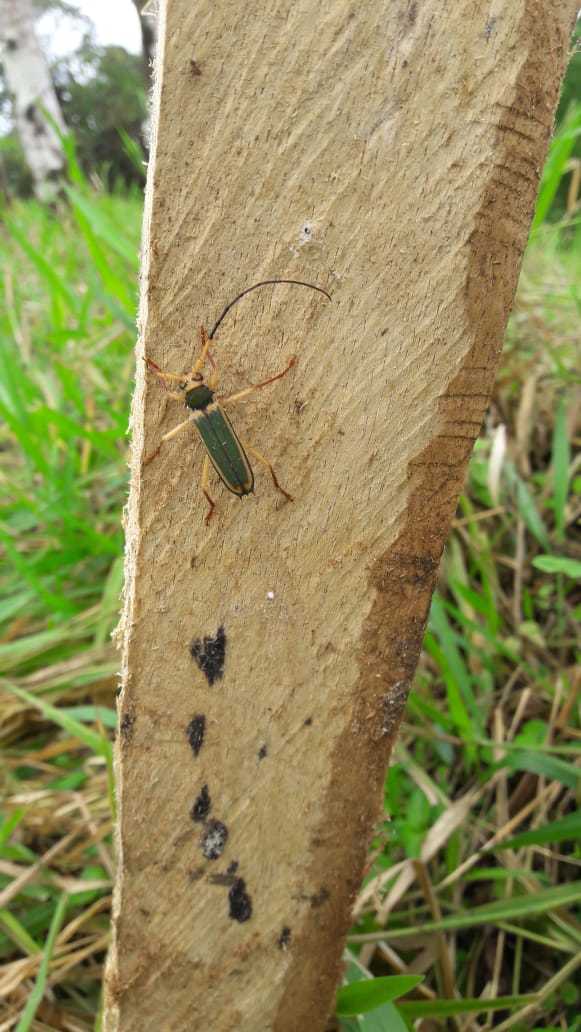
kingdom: Animalia
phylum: Arthropoda
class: Insecta
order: Coleoptera
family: Cerambycidae
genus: Chlorida
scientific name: Chlorida cincta
